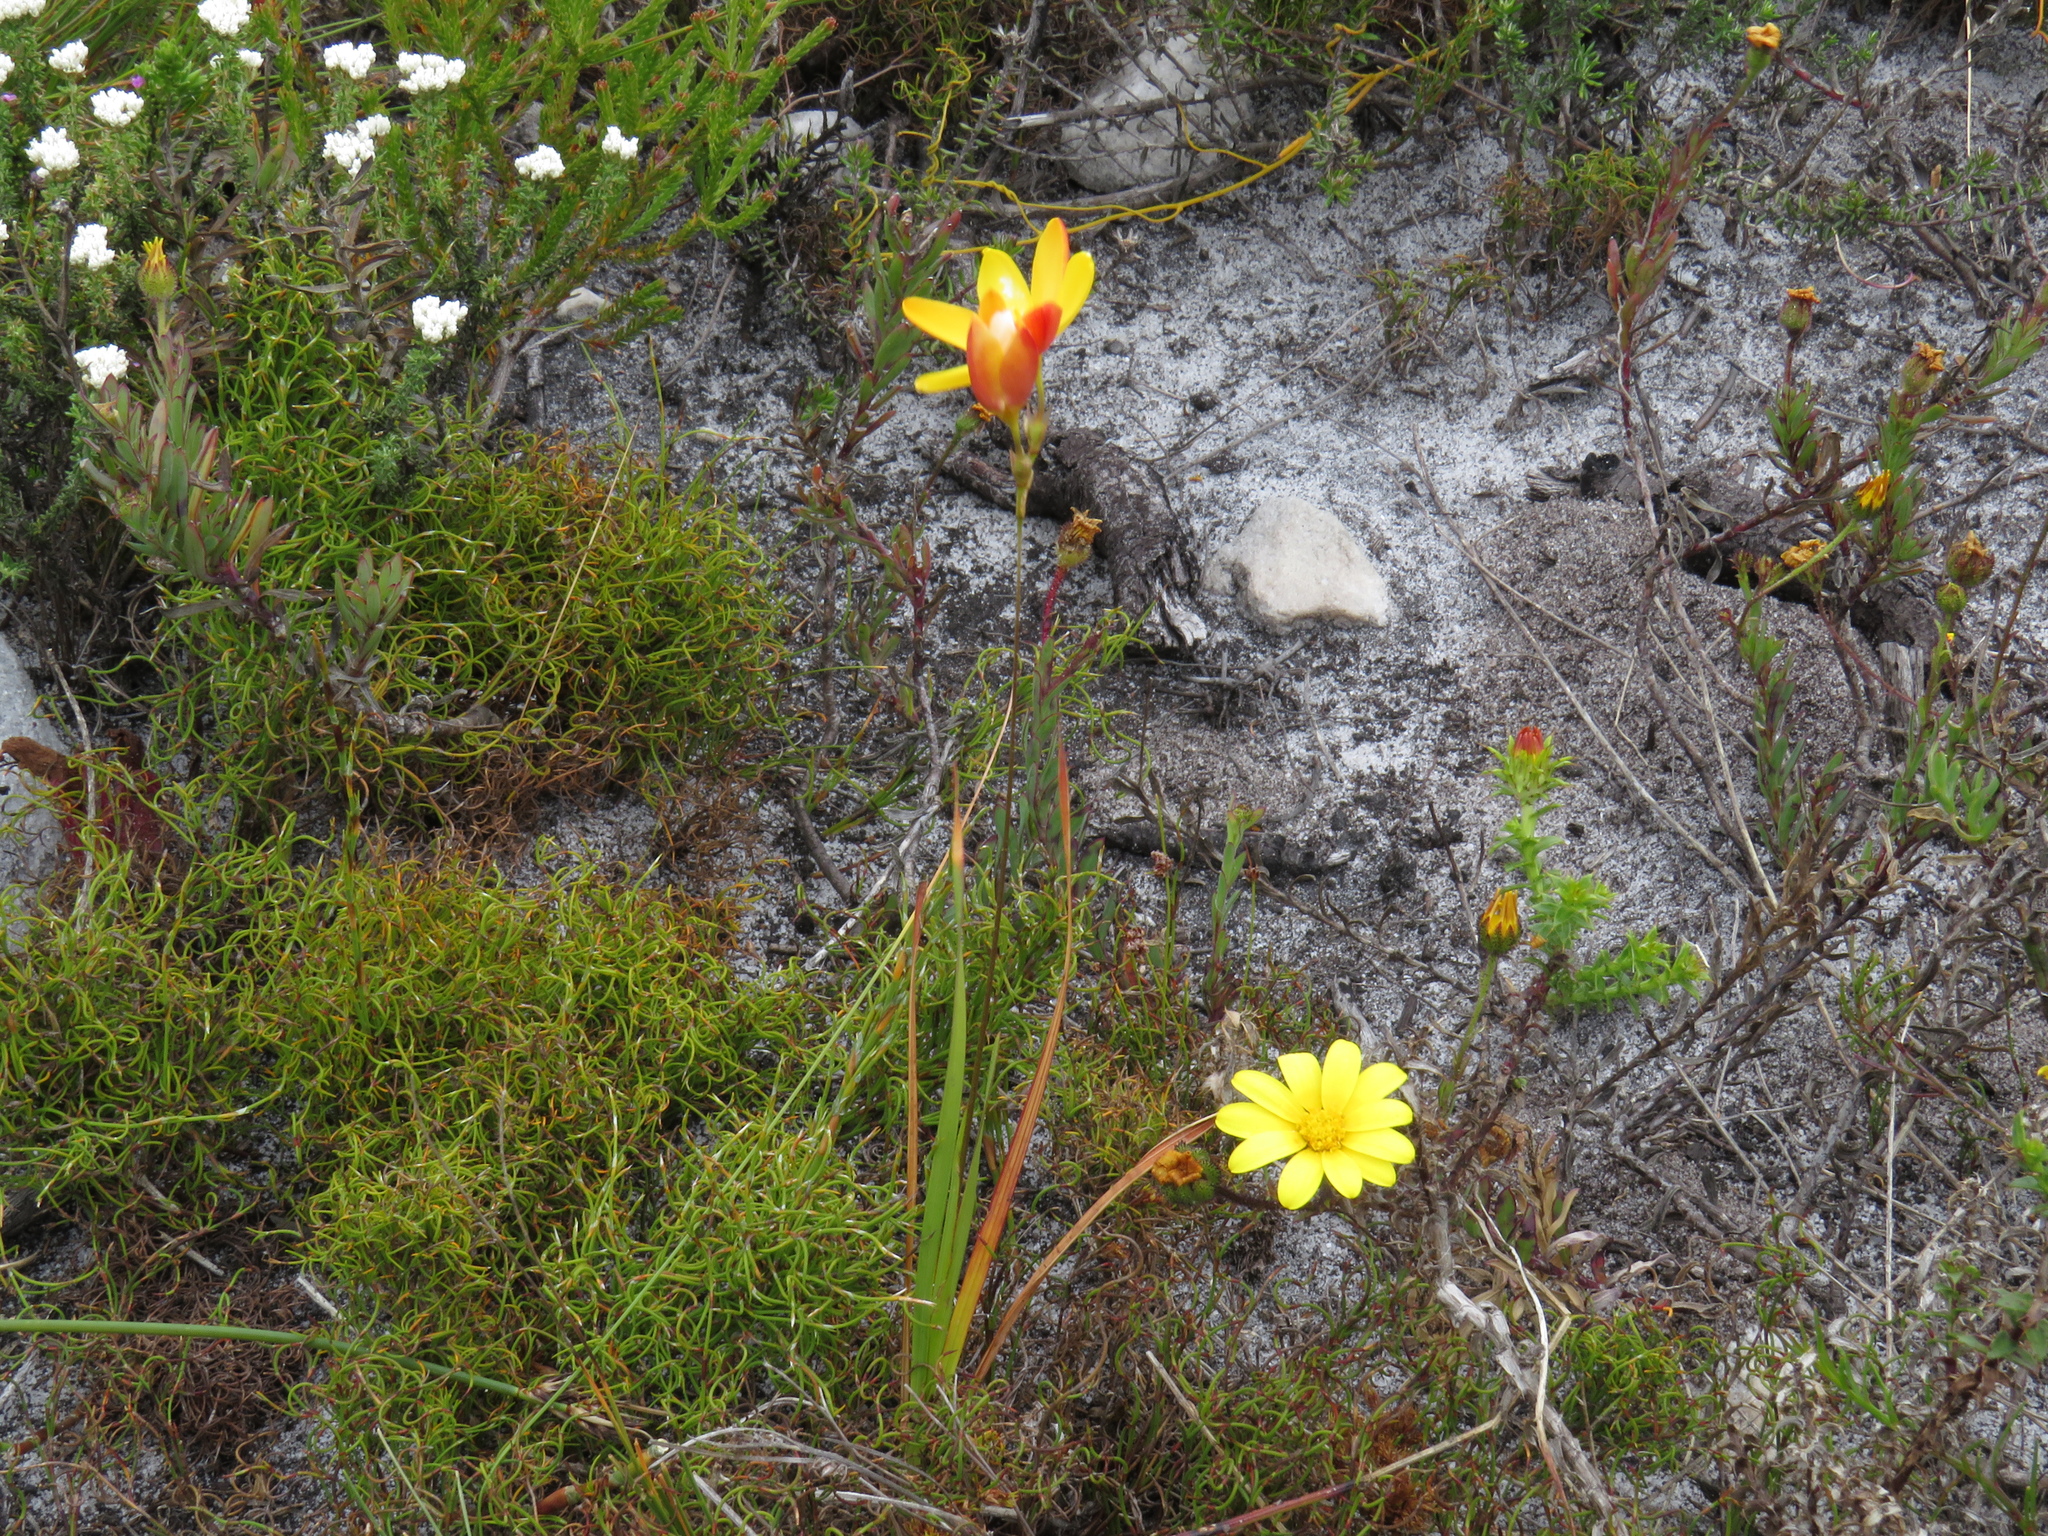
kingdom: Plantae
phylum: Tracheophyta
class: Liliopsida
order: Asparagales
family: Iridaceae
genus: Ixia
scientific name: Ixia dubia
